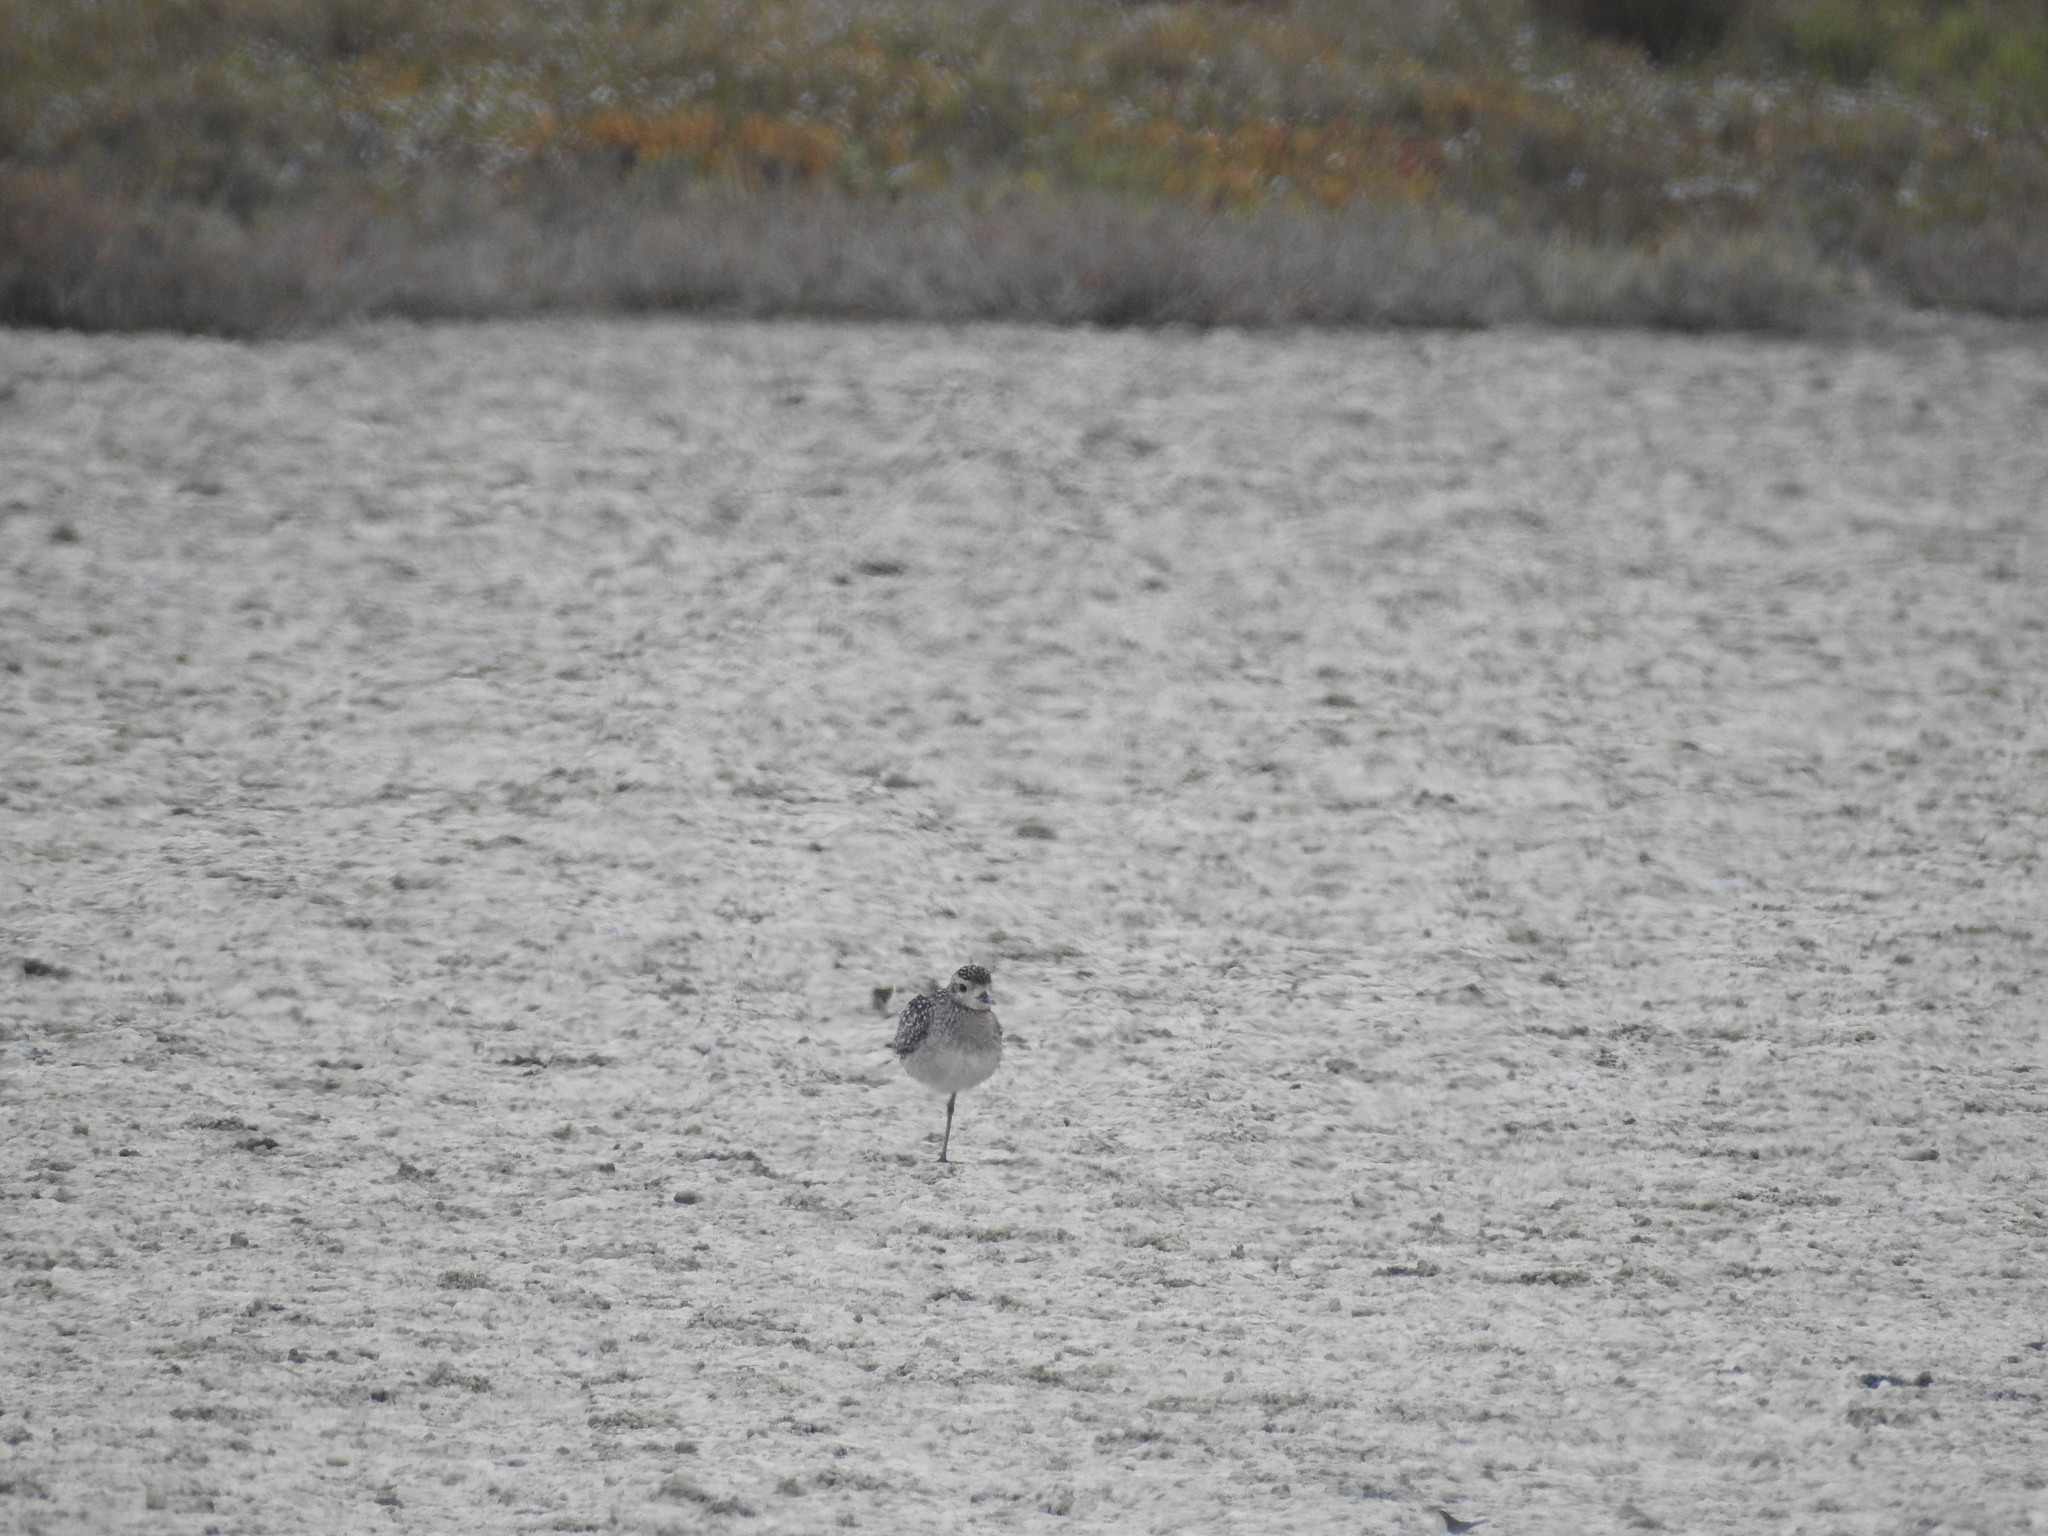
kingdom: Animalia
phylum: Chordata
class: Aves
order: Charadriiformes
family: Charadriidae
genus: Pluvialis
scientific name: Pluvialis fulva
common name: Pacific golden plover
